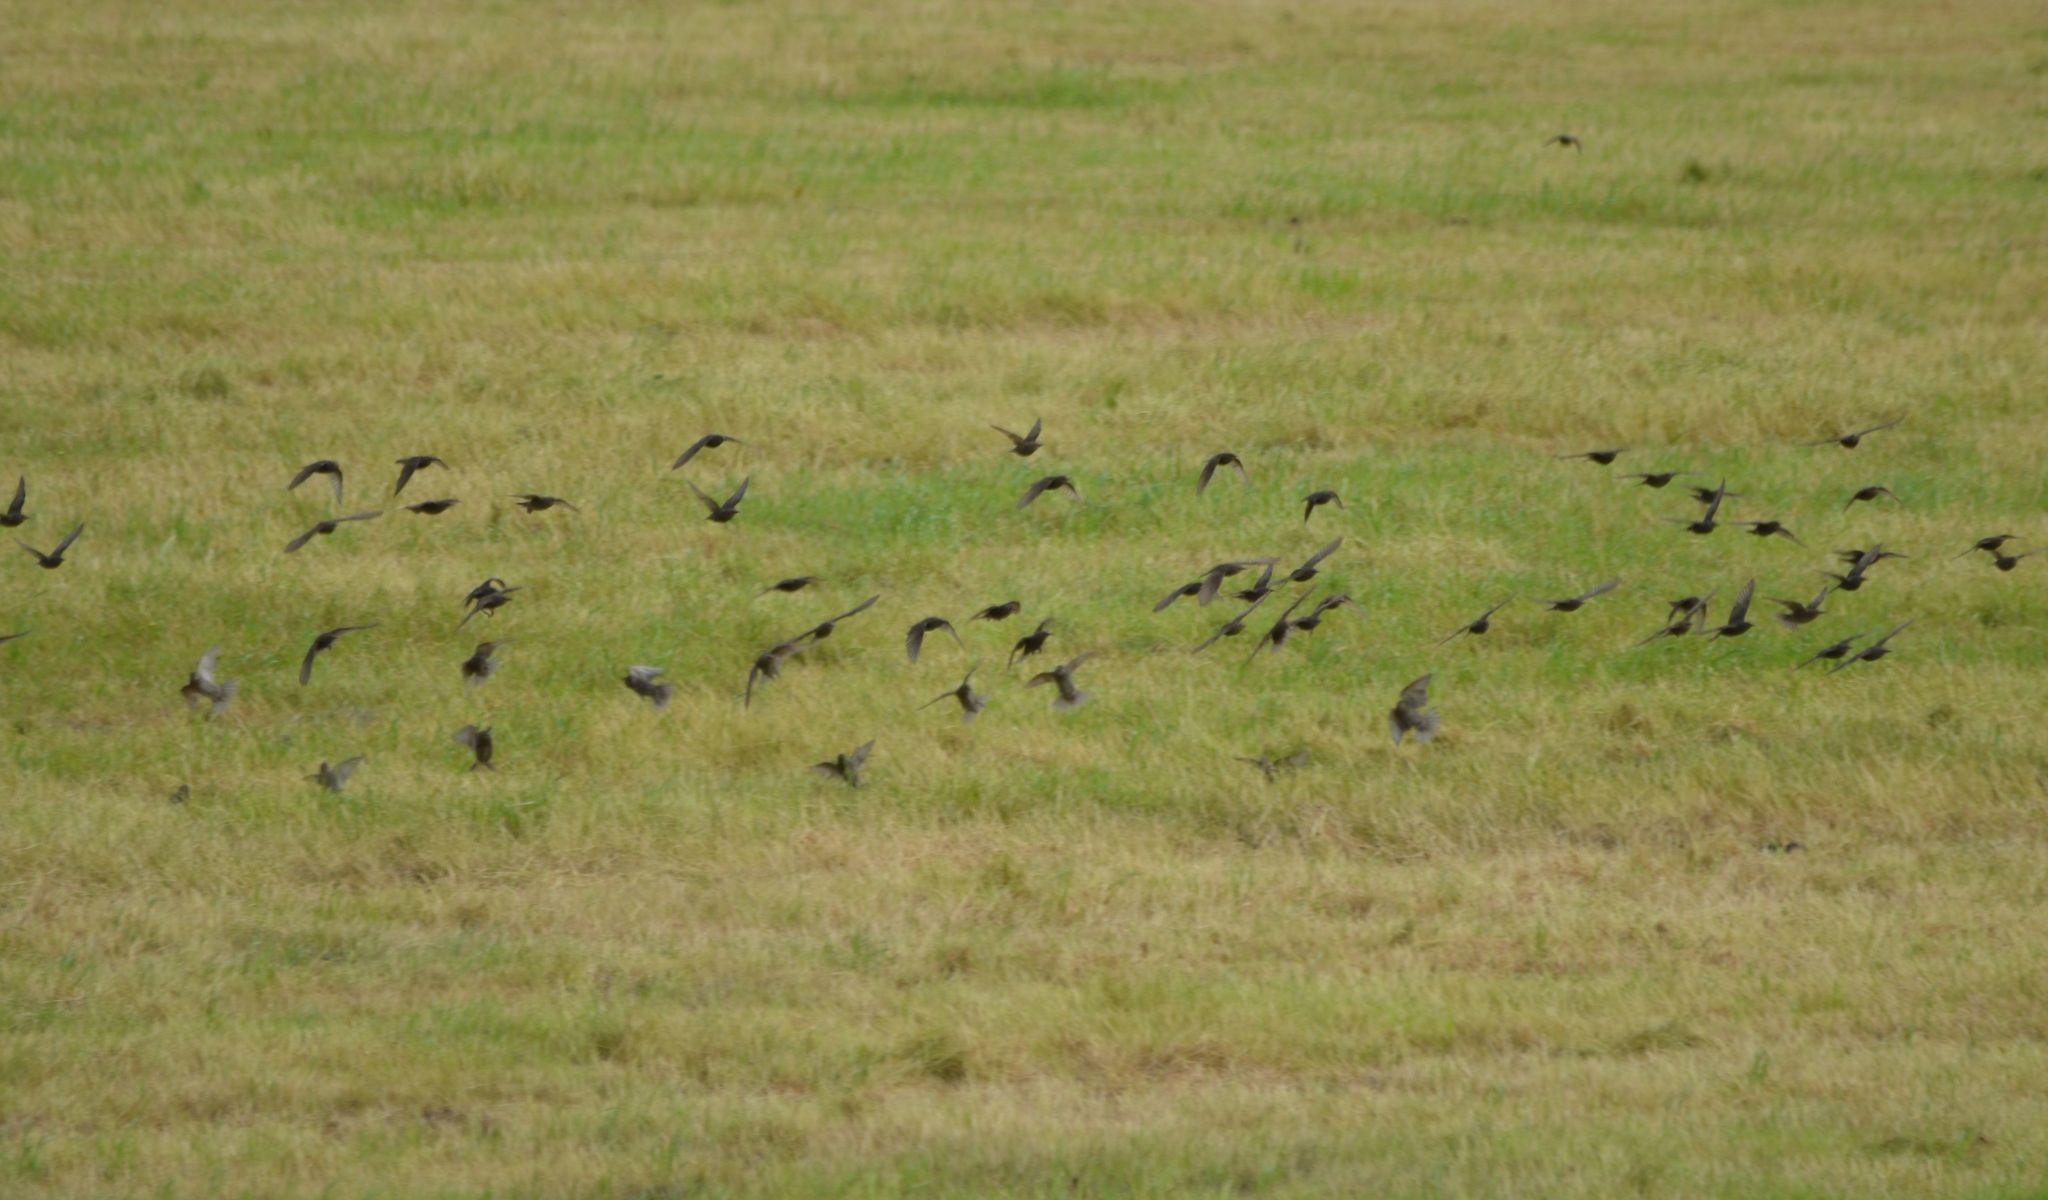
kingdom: Animalia
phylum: Chordata
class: Aves
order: Passeriformes
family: Sturnidae
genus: Sturnus
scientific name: Sturnus vulgaris
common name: Common starling
